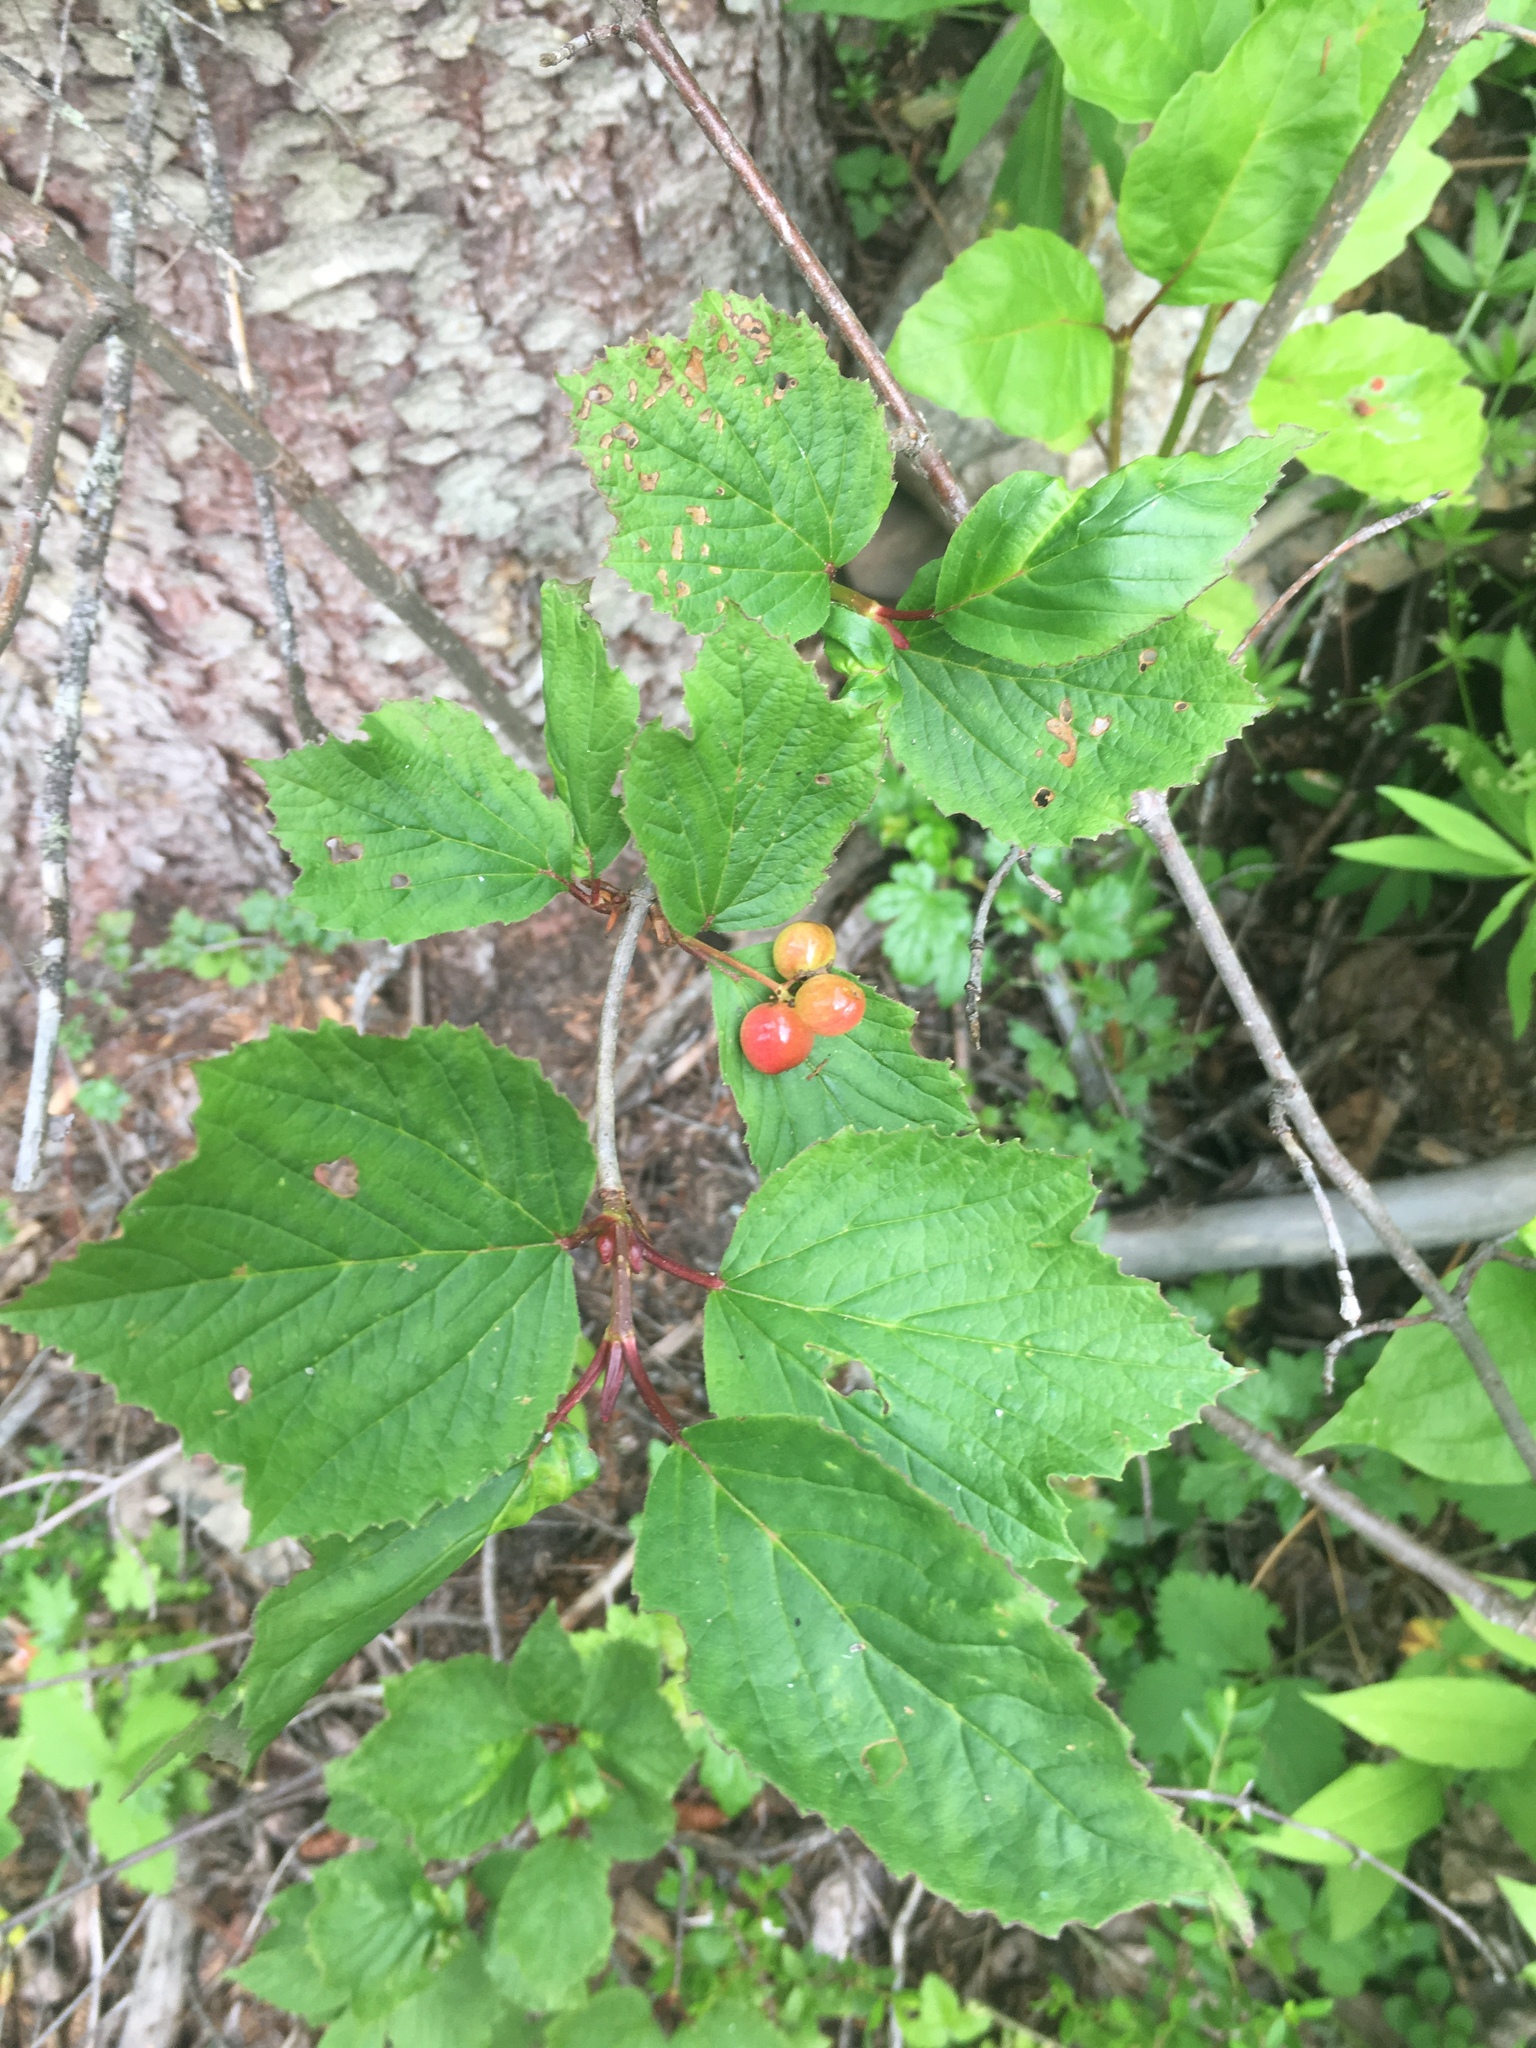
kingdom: Plantae
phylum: Tracheophyta
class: Magnoliopsida
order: Dipsacales
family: Viburnaceae
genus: Viburnum
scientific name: Viburnum edule
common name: Mooseberry
